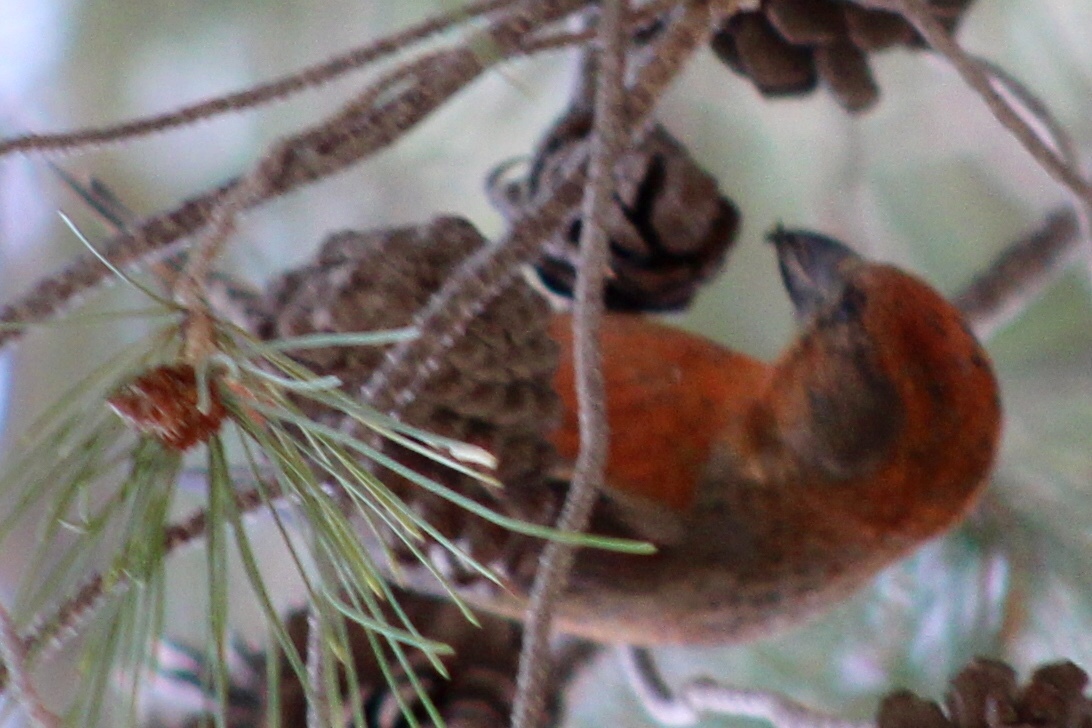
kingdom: Animalia
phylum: Chordata
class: Aves
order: Passeriformes
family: Fringillidae
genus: Loxia
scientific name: Loxia curvirostra
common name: Red crossbill
